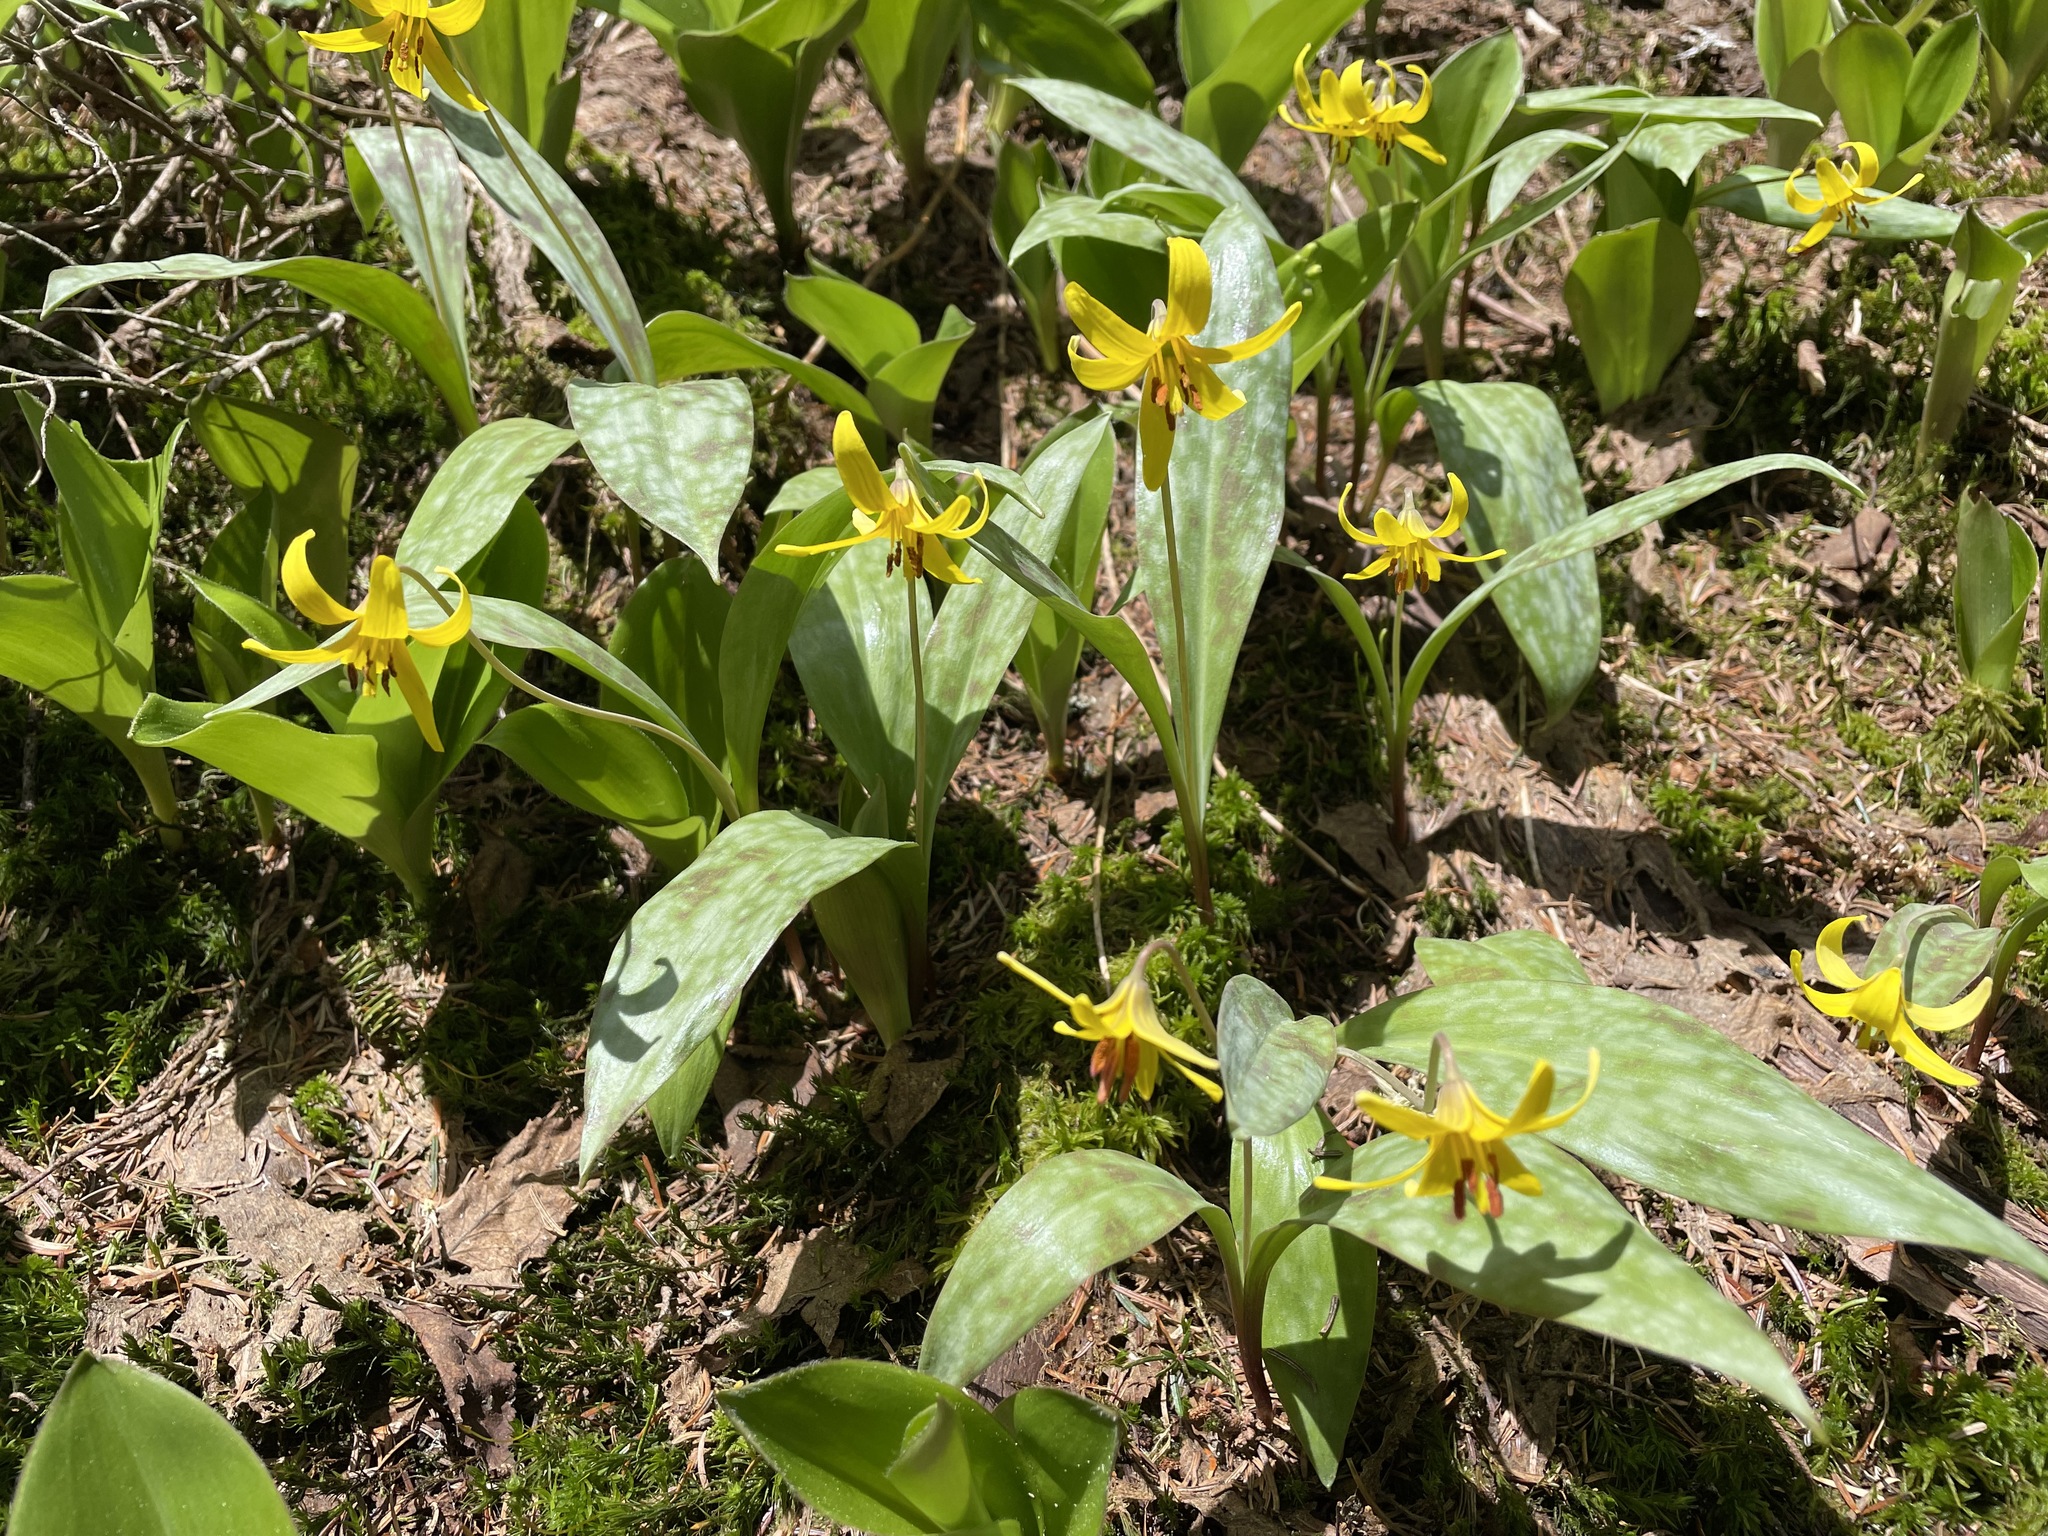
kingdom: Plantae
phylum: Tracheophyta
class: Liliopsida
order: Liliales
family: Liliaceae
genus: Erythronium
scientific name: Erythronium americanum
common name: Yellow adder's-tongue
